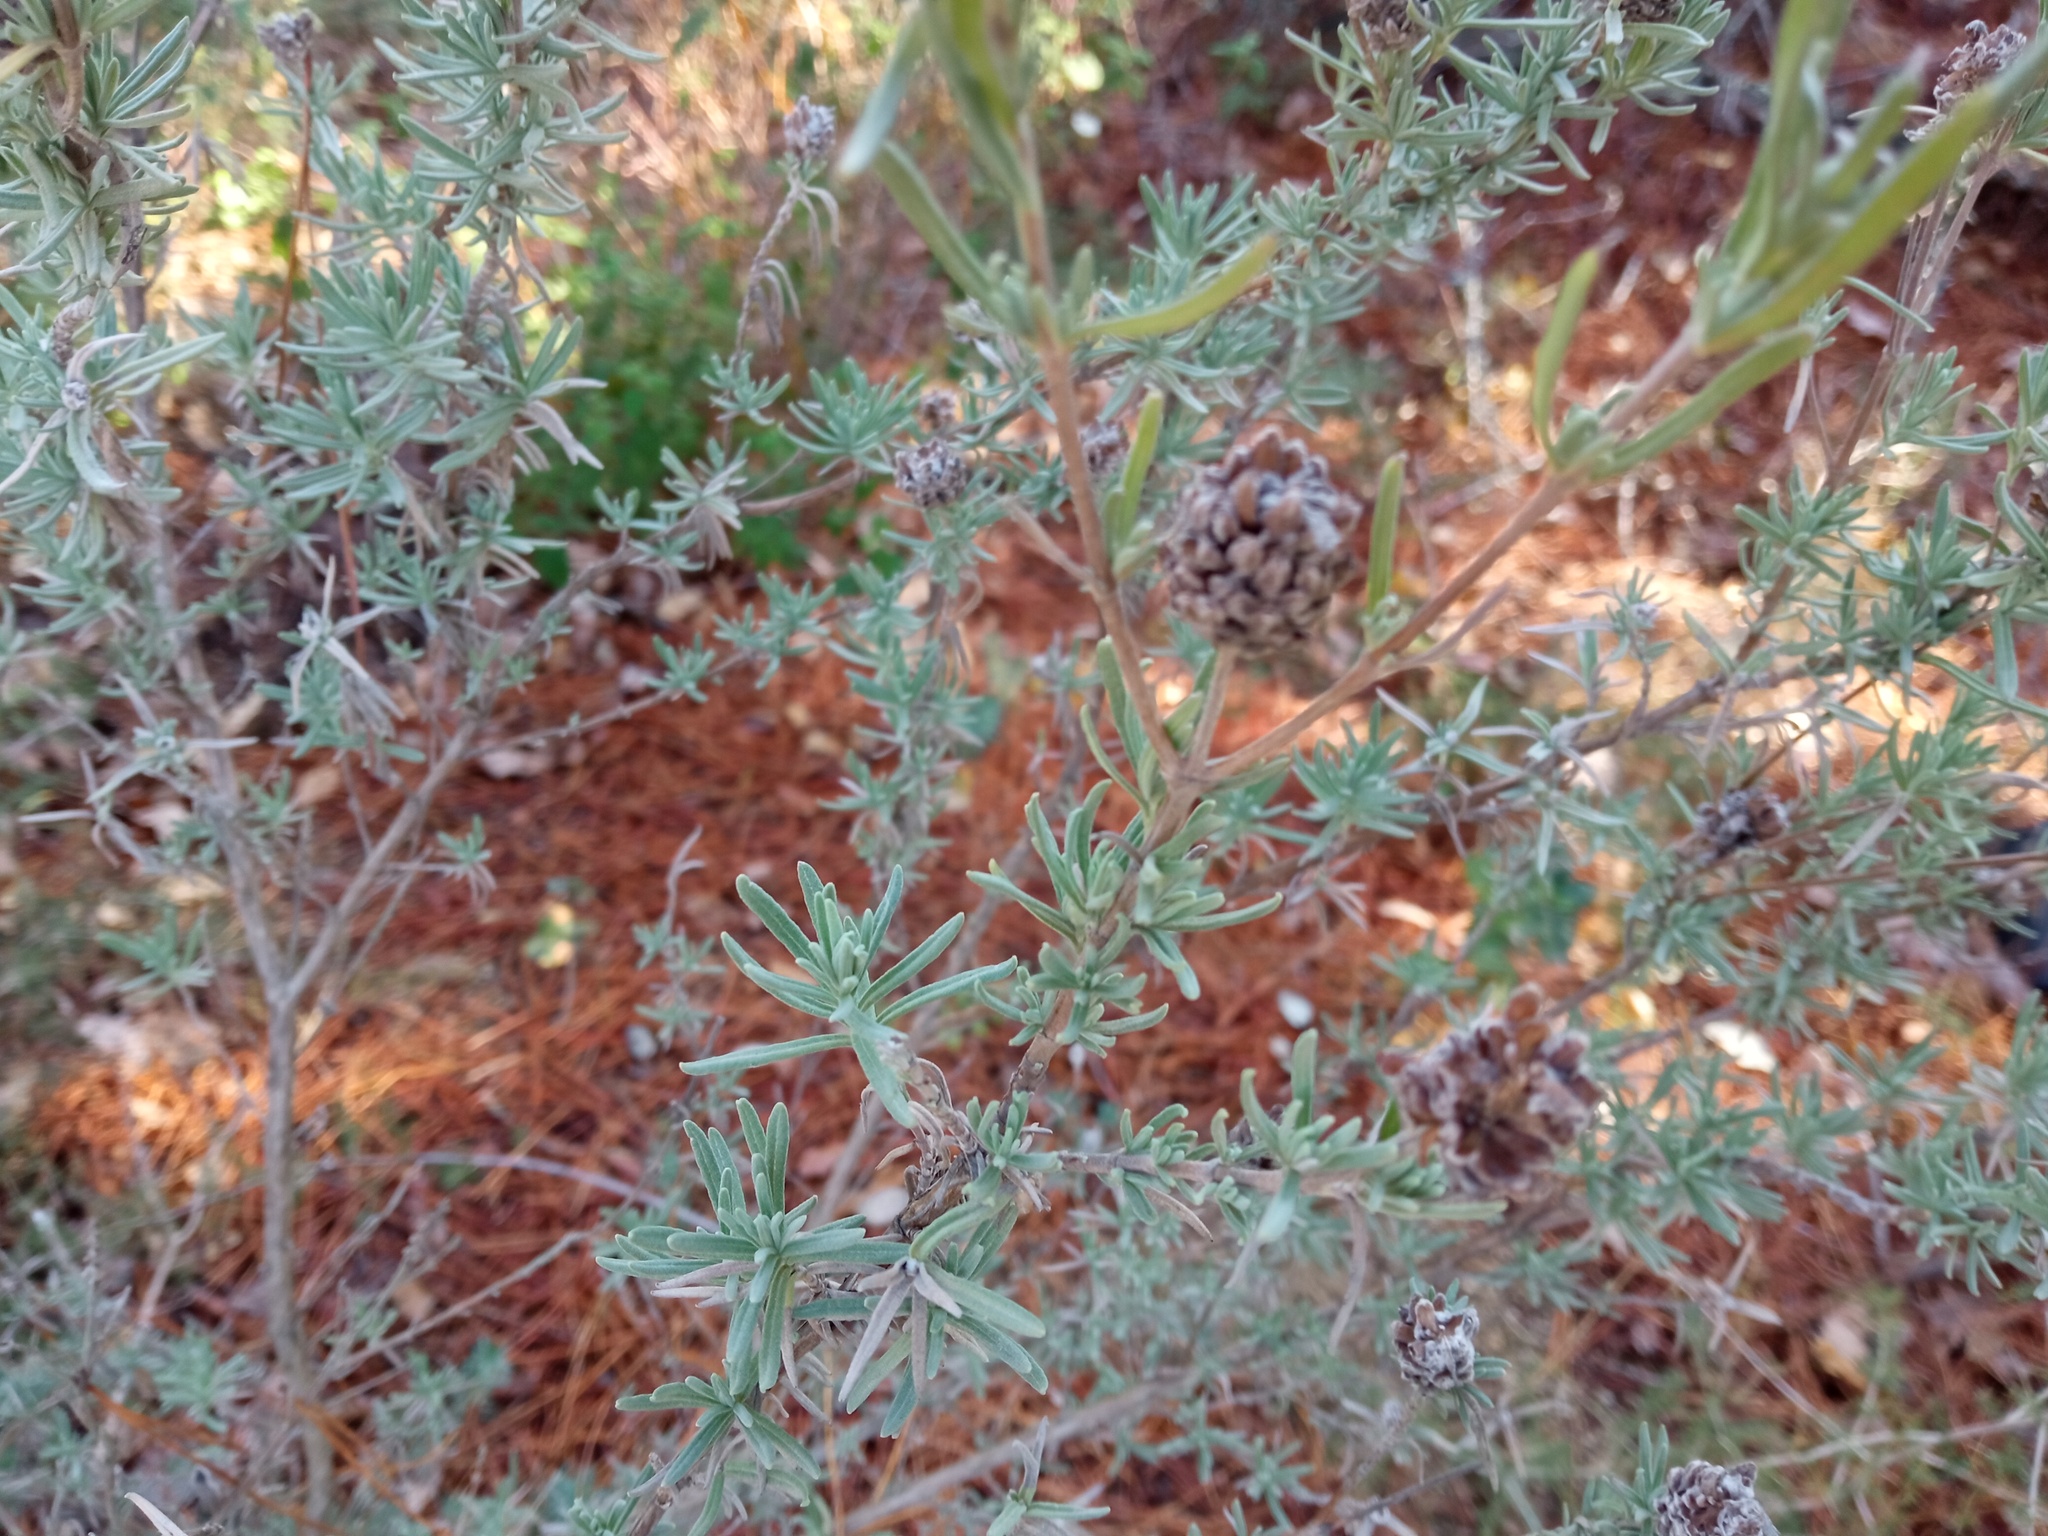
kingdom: Plantae
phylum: Tracheophyta
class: Magnoliopsida
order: Lamiales
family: Lamiaceae
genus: Lavandula
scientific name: Lavandula stoechas
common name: French lavender
